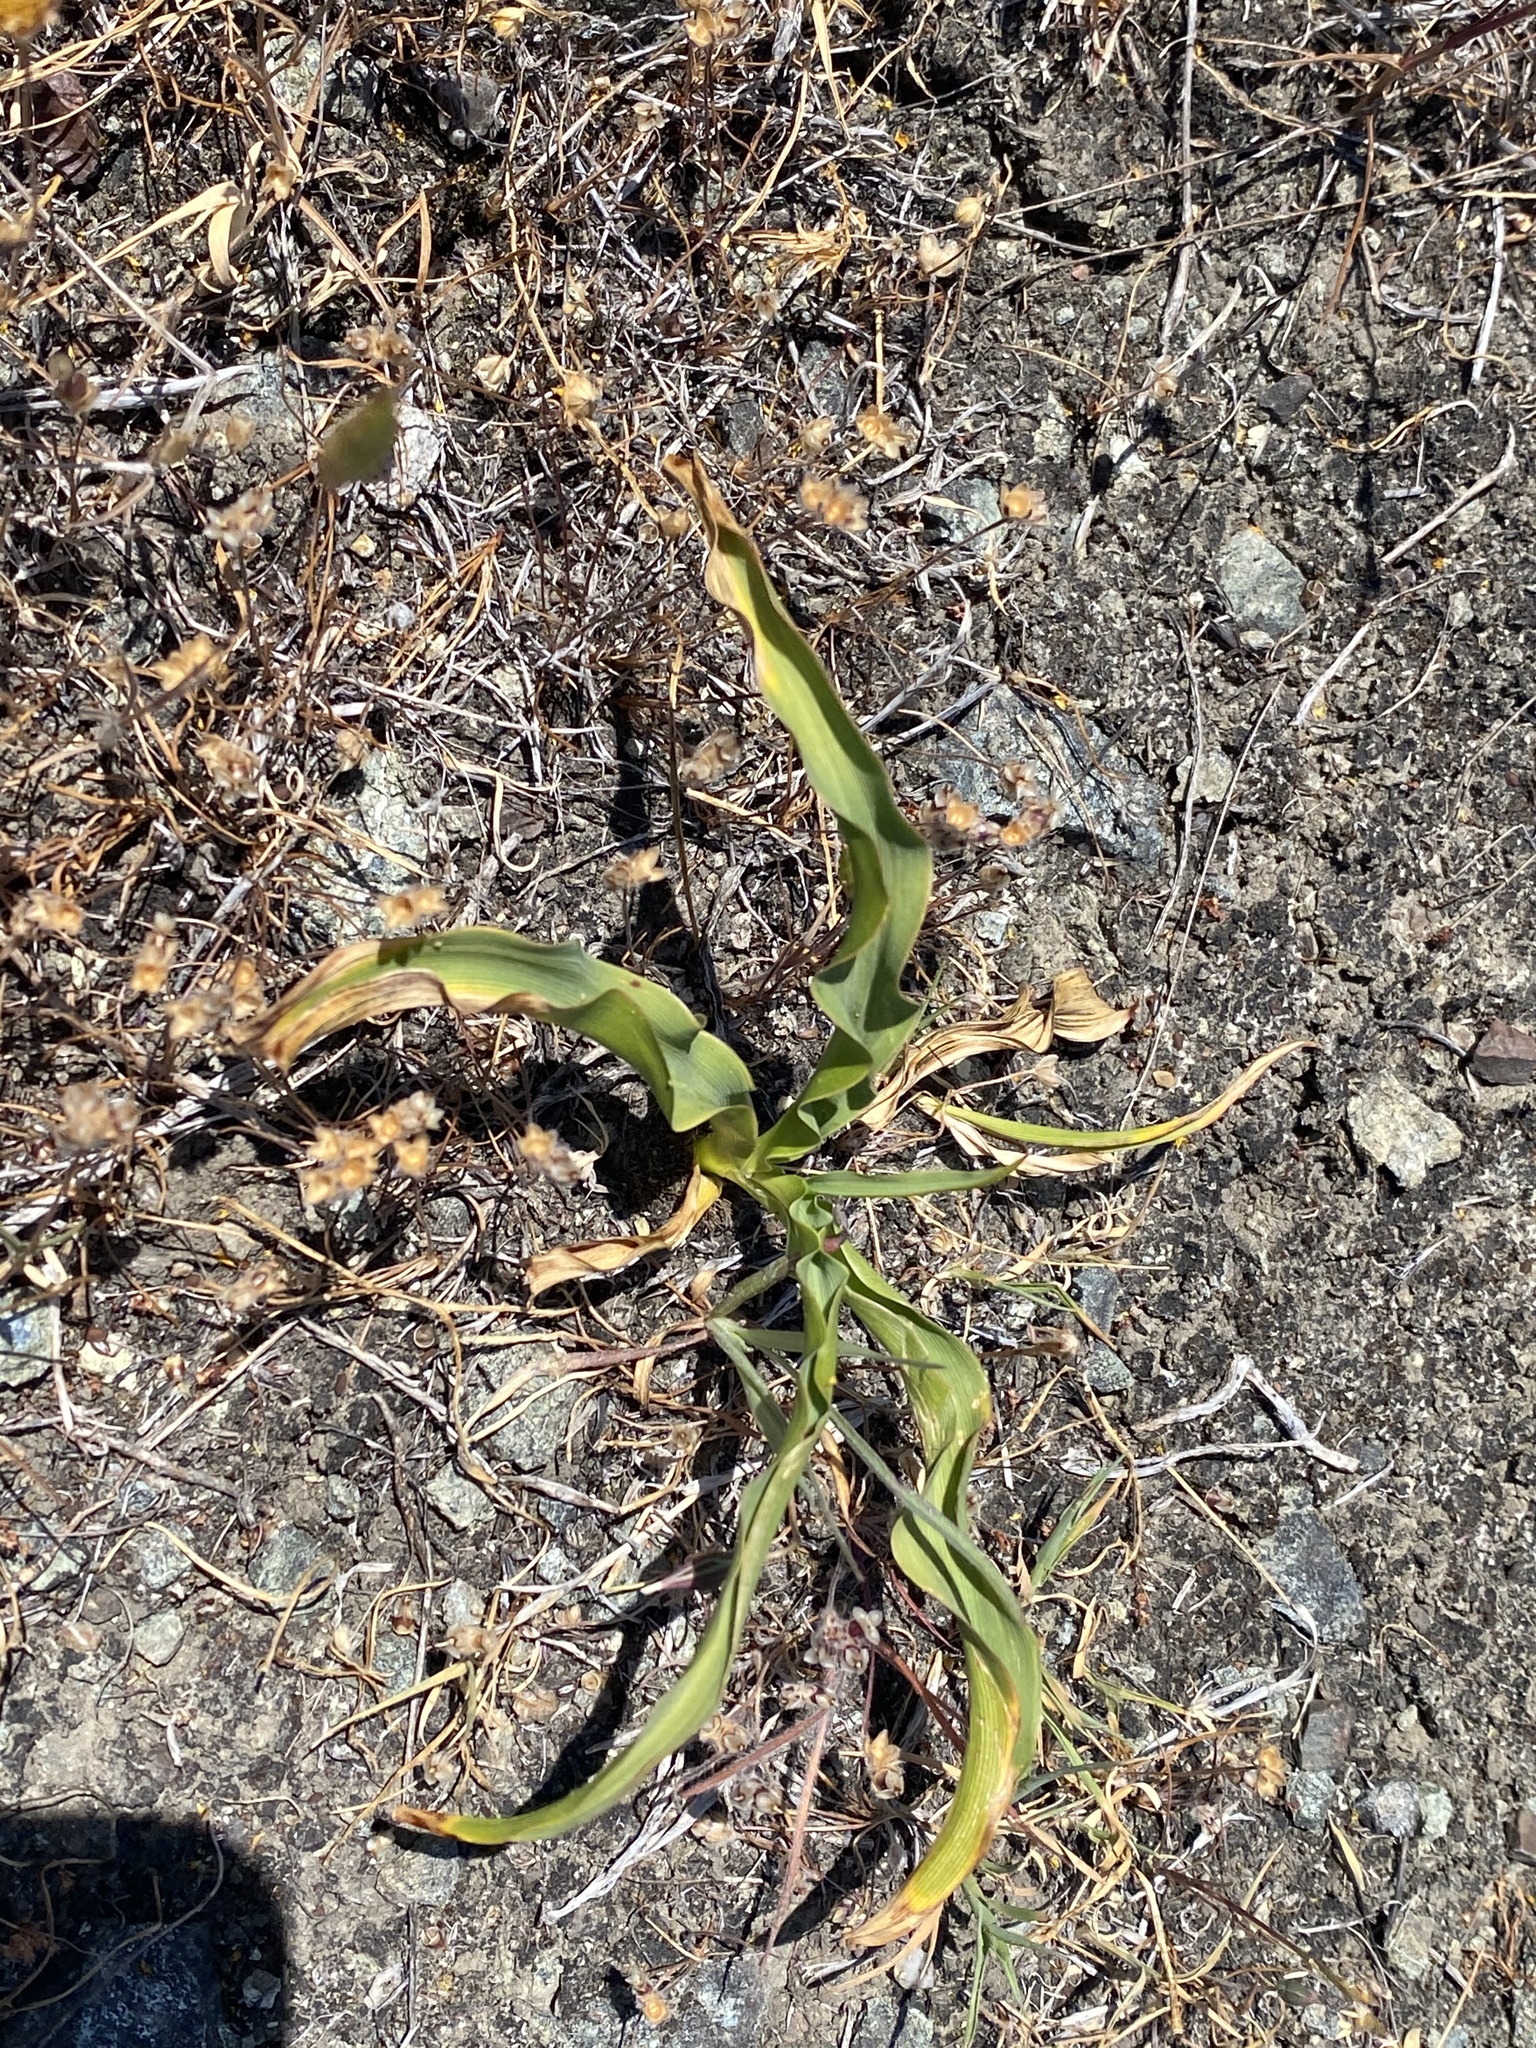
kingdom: Plantae
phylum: Tracheophyta
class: Liliopsida
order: Asparagales
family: Asparagaceae
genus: Chlorogalum
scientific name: Chlorogalum pomeridianum
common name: Amole
